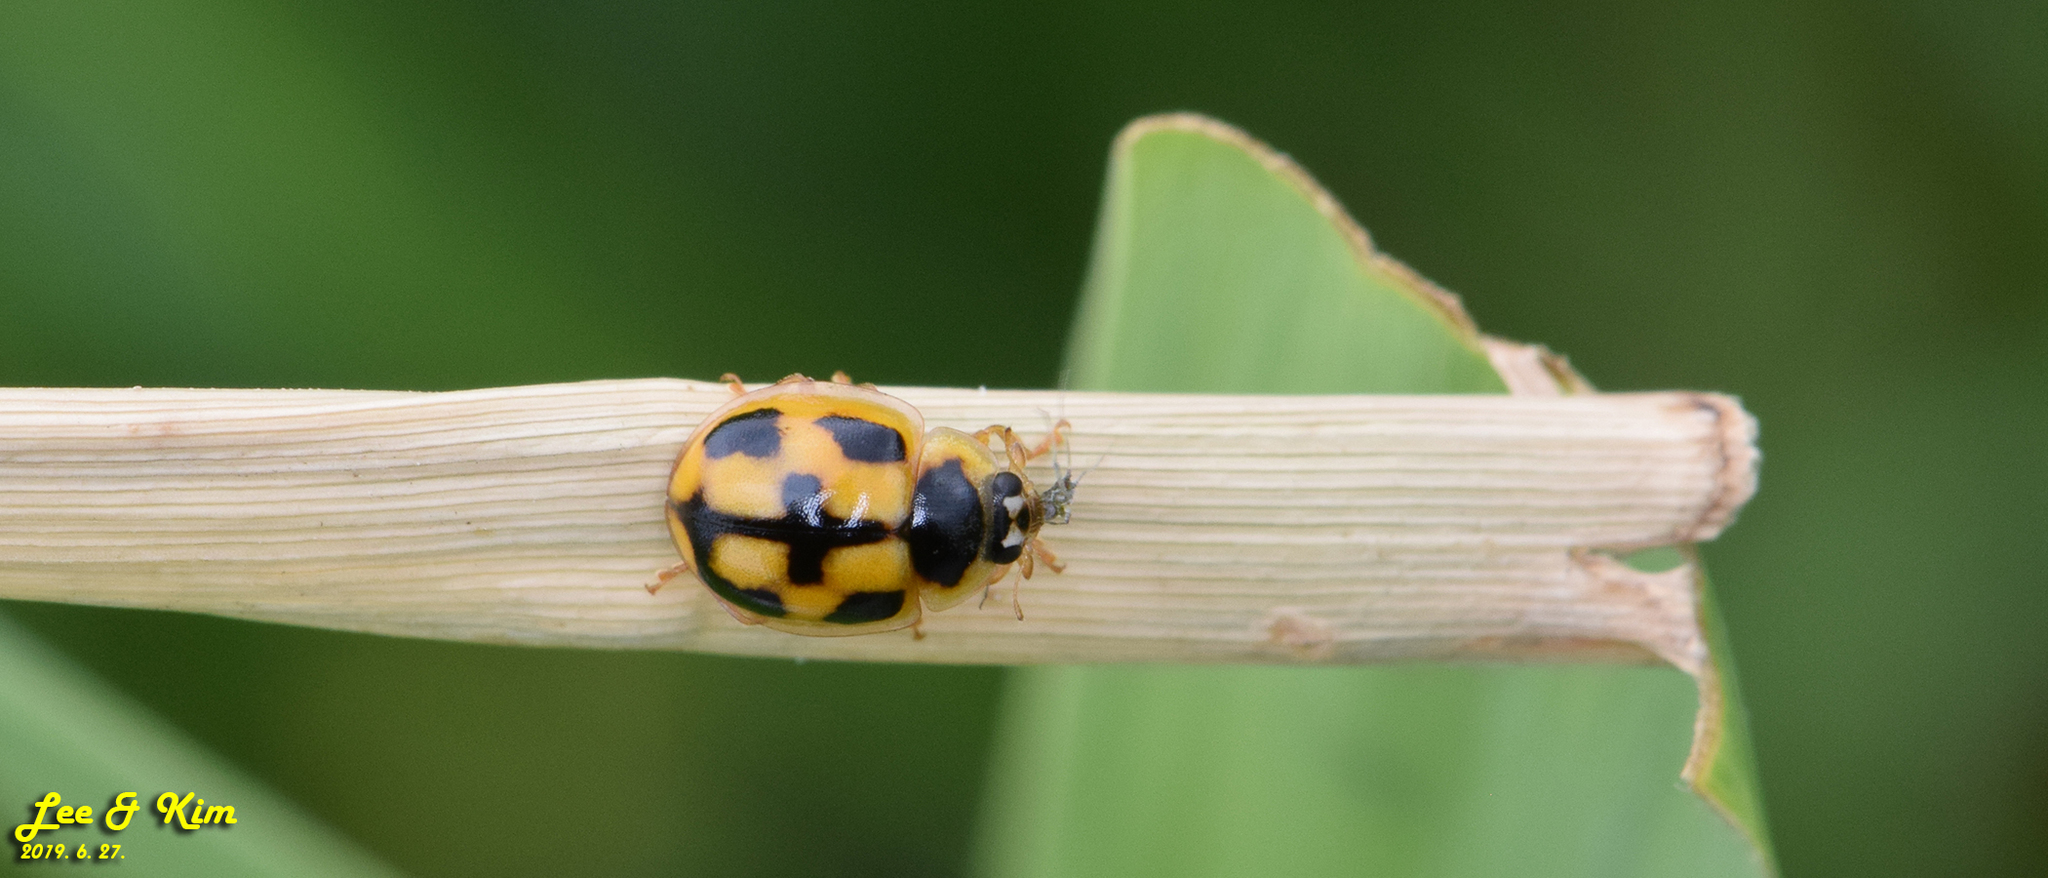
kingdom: Animalia
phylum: Arthropoda
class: Insecta
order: Coleoptera
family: Coccinellidae
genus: Propylea
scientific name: Propylea japonica
